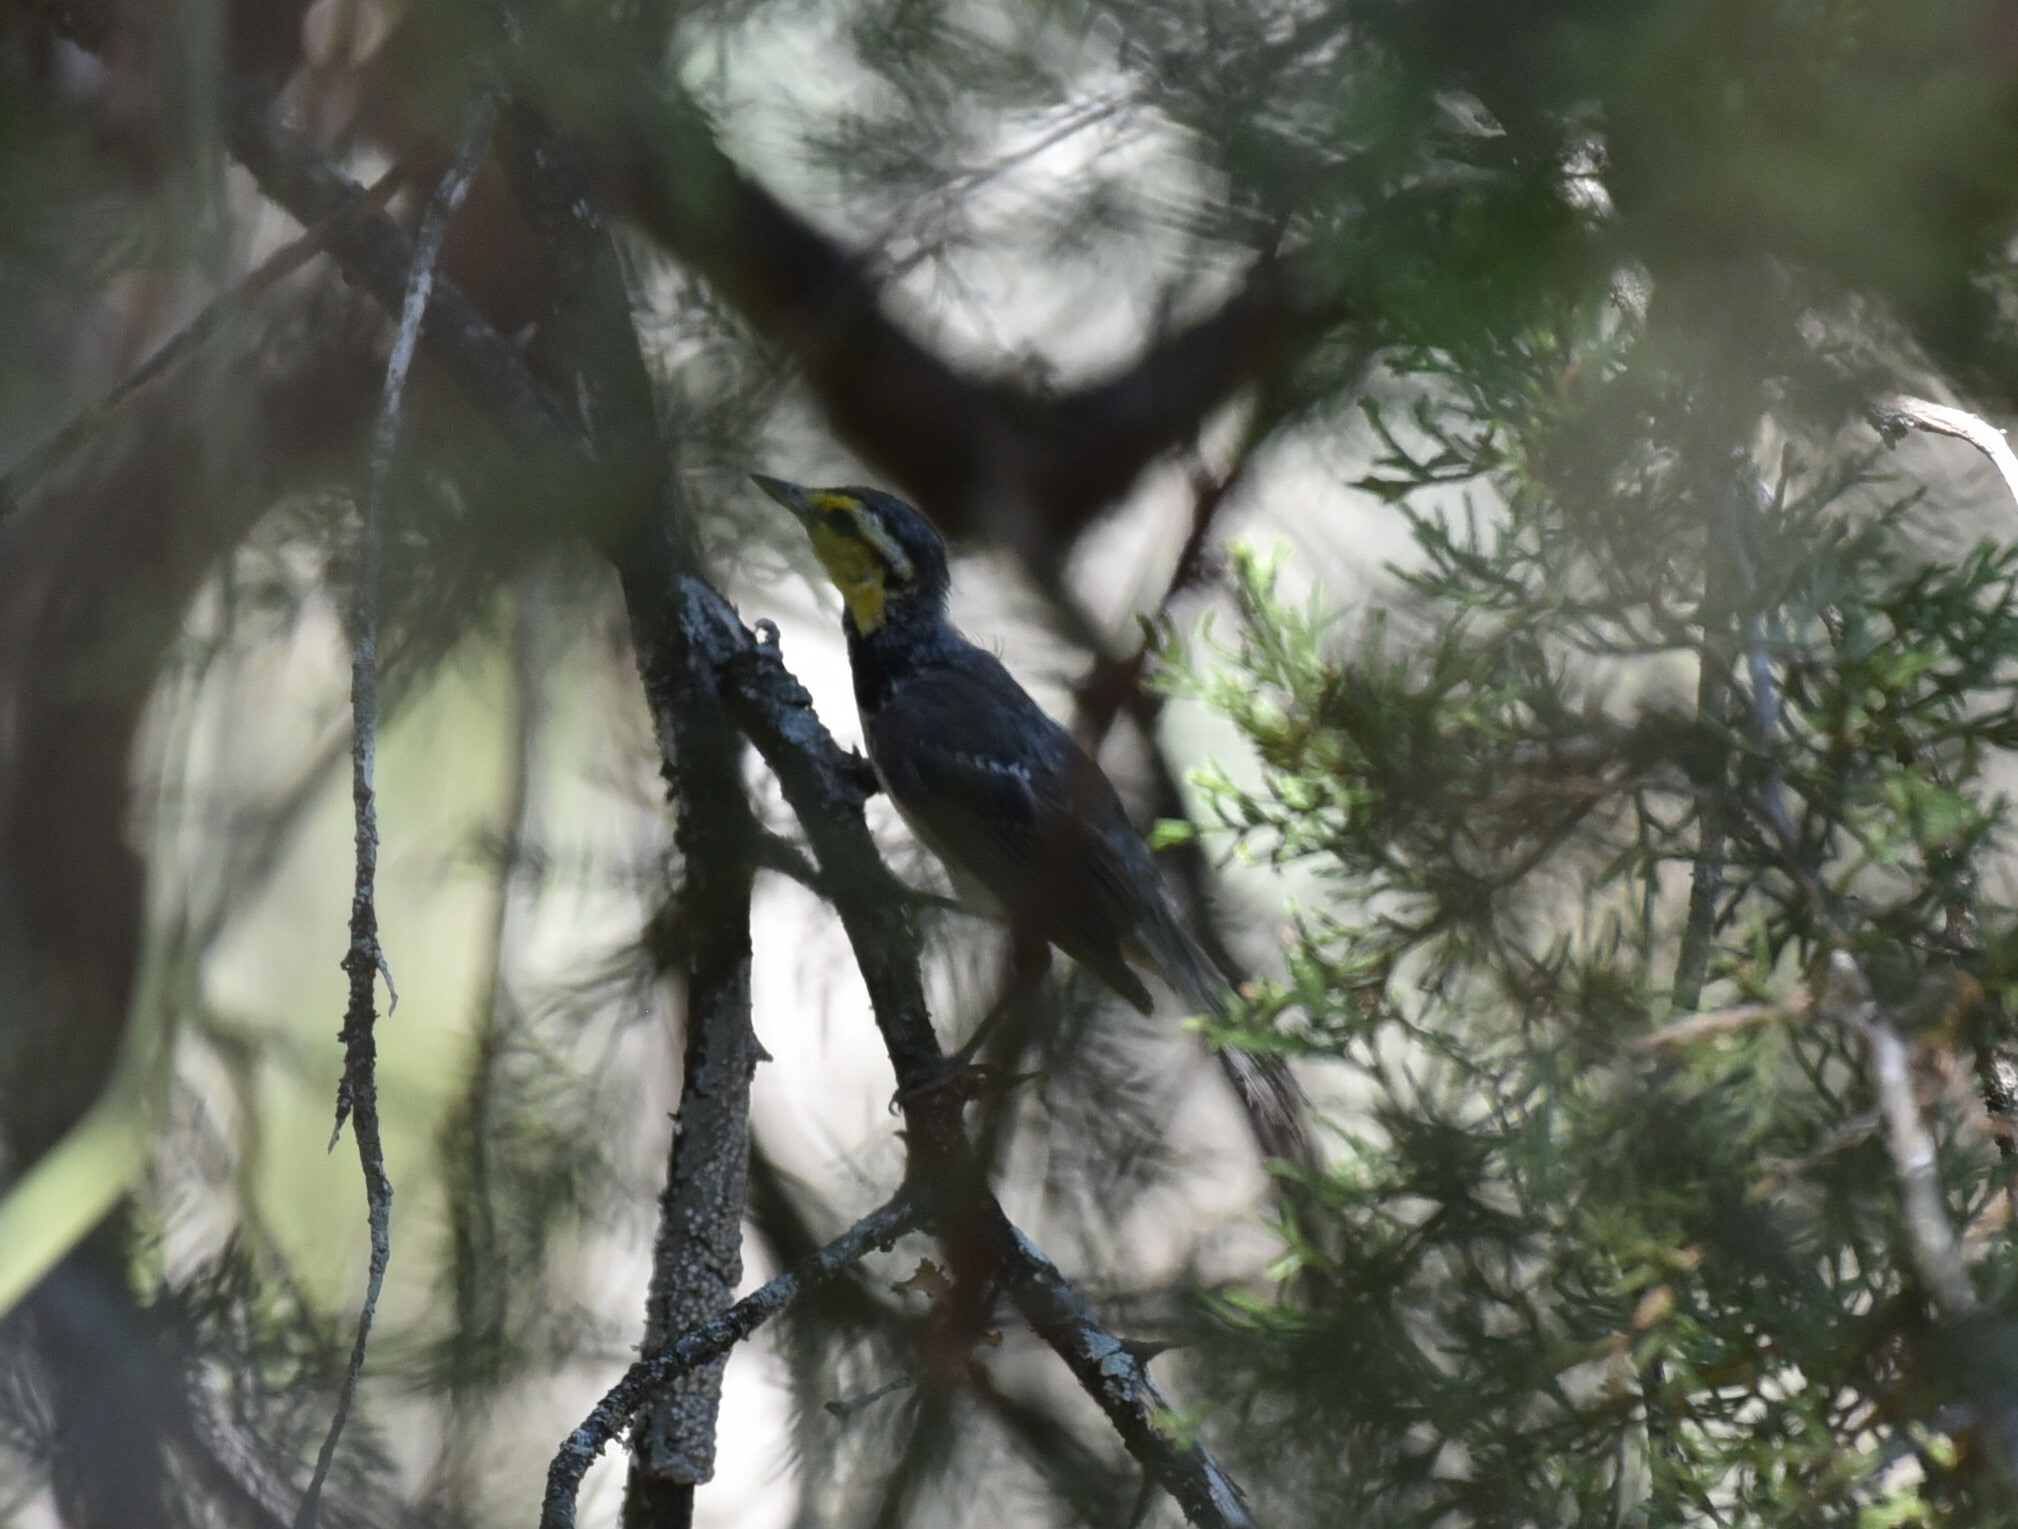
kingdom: Animalia
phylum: Chordata
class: Aves
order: Passeriformes
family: Parulidae
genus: Setophaga
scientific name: Setophaga chrysoparia
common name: Golden-cheeked warbler
